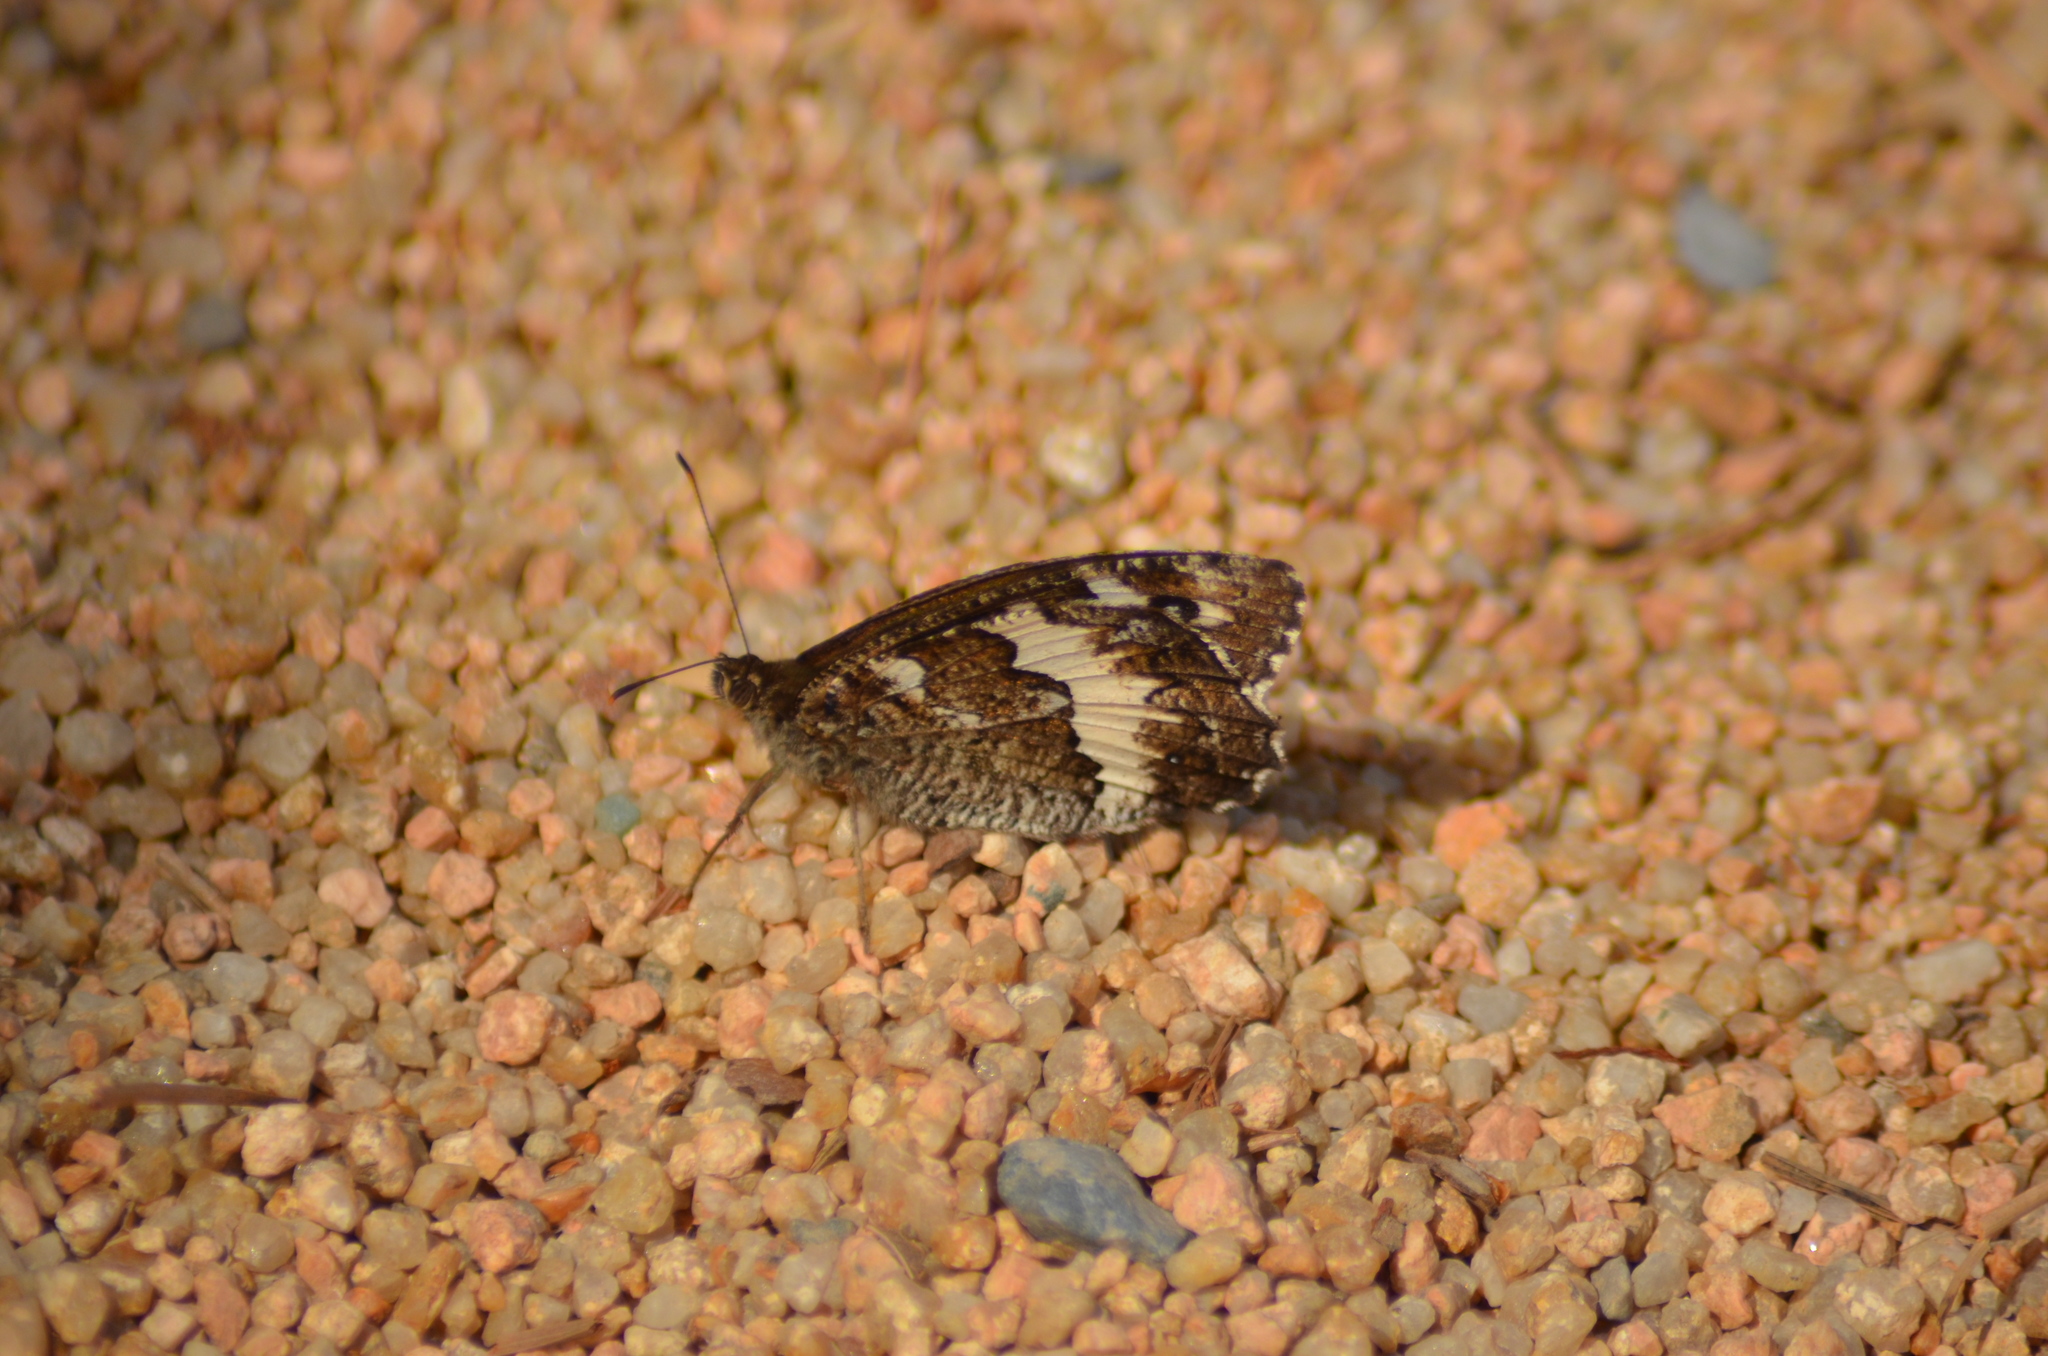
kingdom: Animalia
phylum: Arthropoda
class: Insecta
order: Lepidoptera
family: Lycaenidae
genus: Loweia
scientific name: Loweia tityrus
